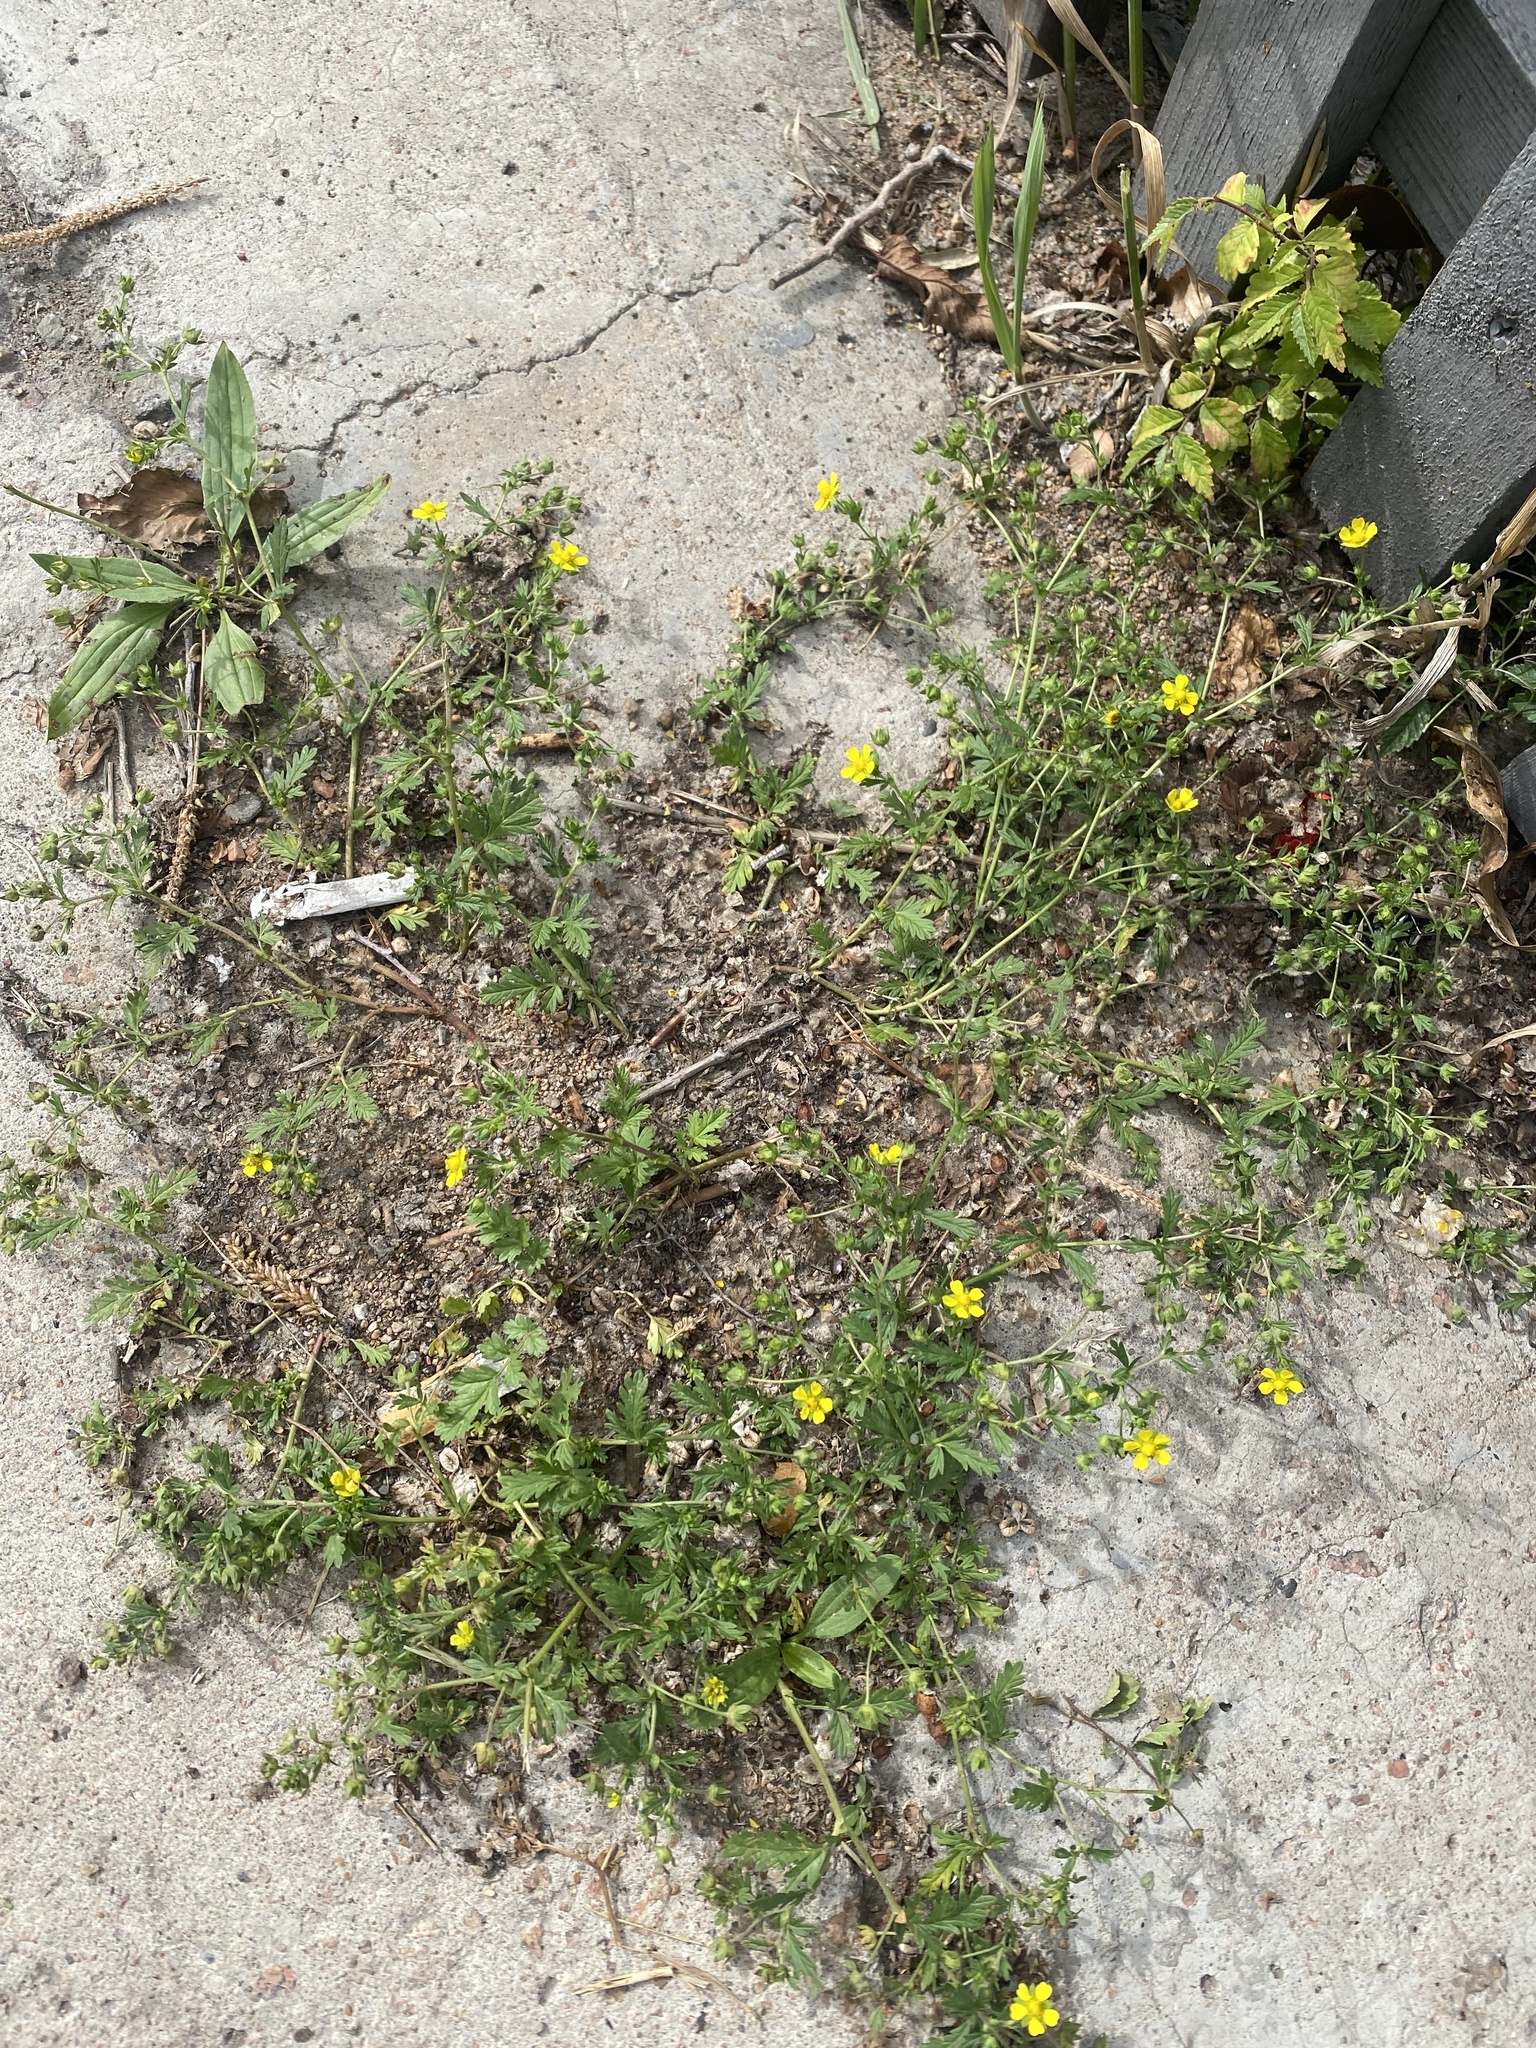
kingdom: Plantae
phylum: Tracheophyta
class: Magnoliopsida
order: Rosales
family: Rosaceae
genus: Potentilla
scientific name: Potentilla argentea
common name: Hoary cinquefoil
